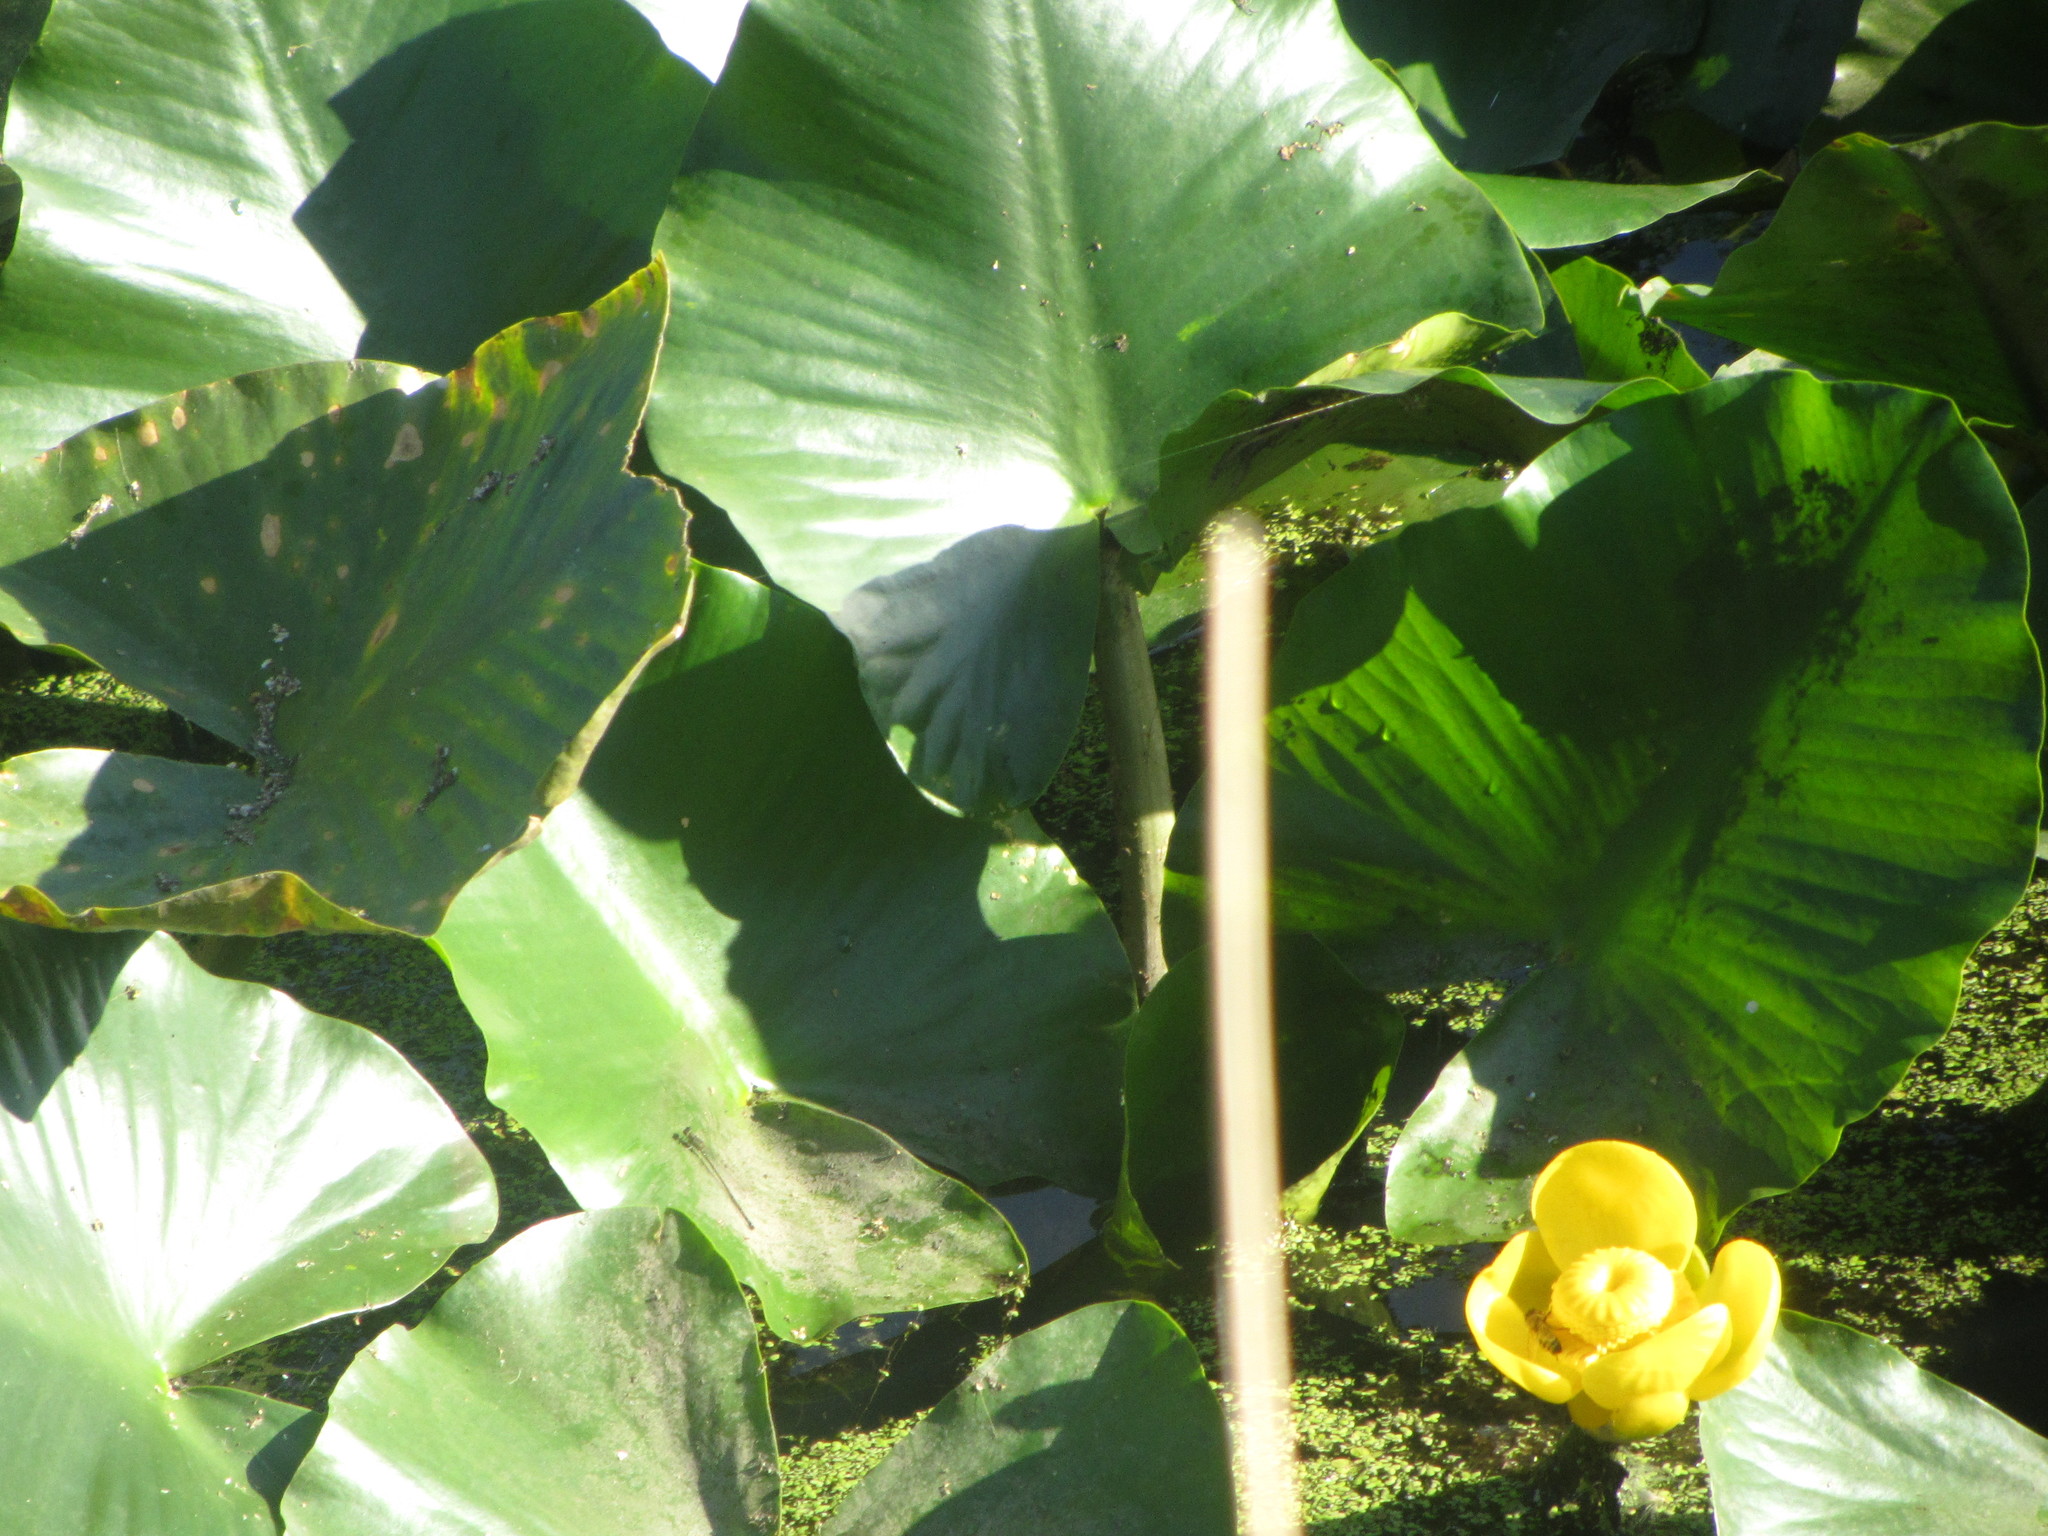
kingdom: Plantae
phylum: Tracheophyta
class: Magnoliopsida
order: Nymphaeales
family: Nymphaeaceae
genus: Nuphar
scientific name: Nuphar polysepala
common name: Rocky mountain cow-lily
